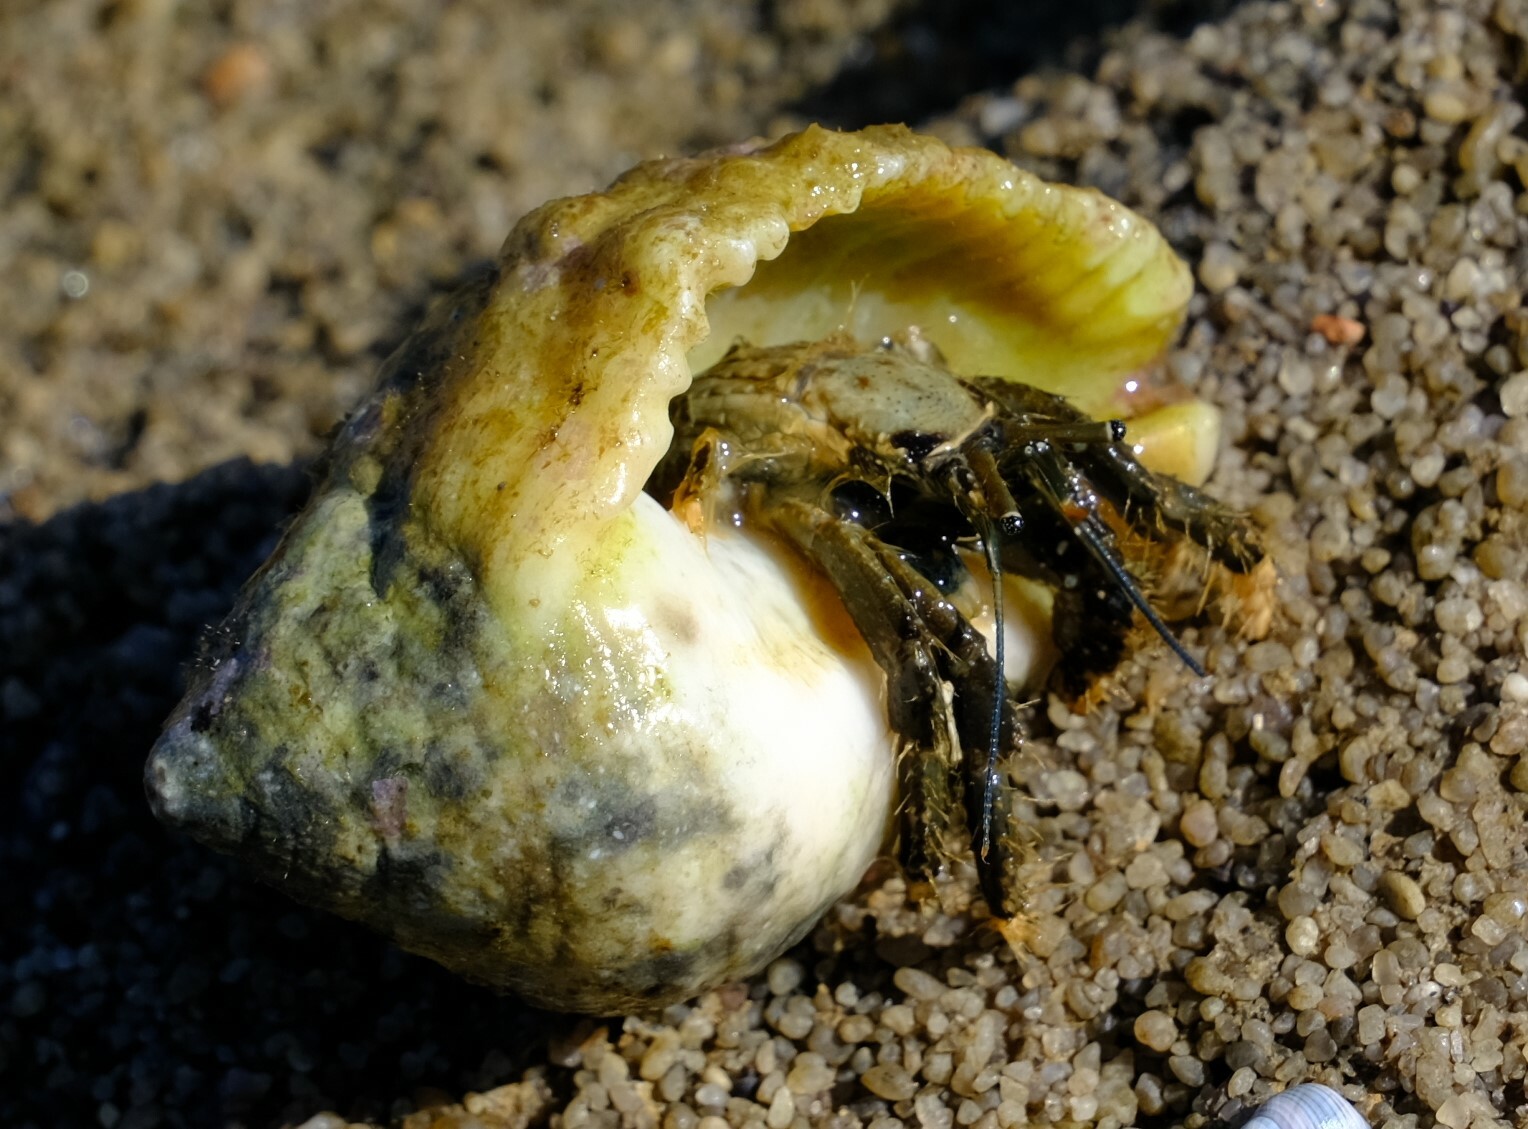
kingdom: Animalia
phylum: Arthropoda
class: Malacostraca
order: Decapoda
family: Diogenidae
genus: Clibanarius
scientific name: Clibanarius virescens
